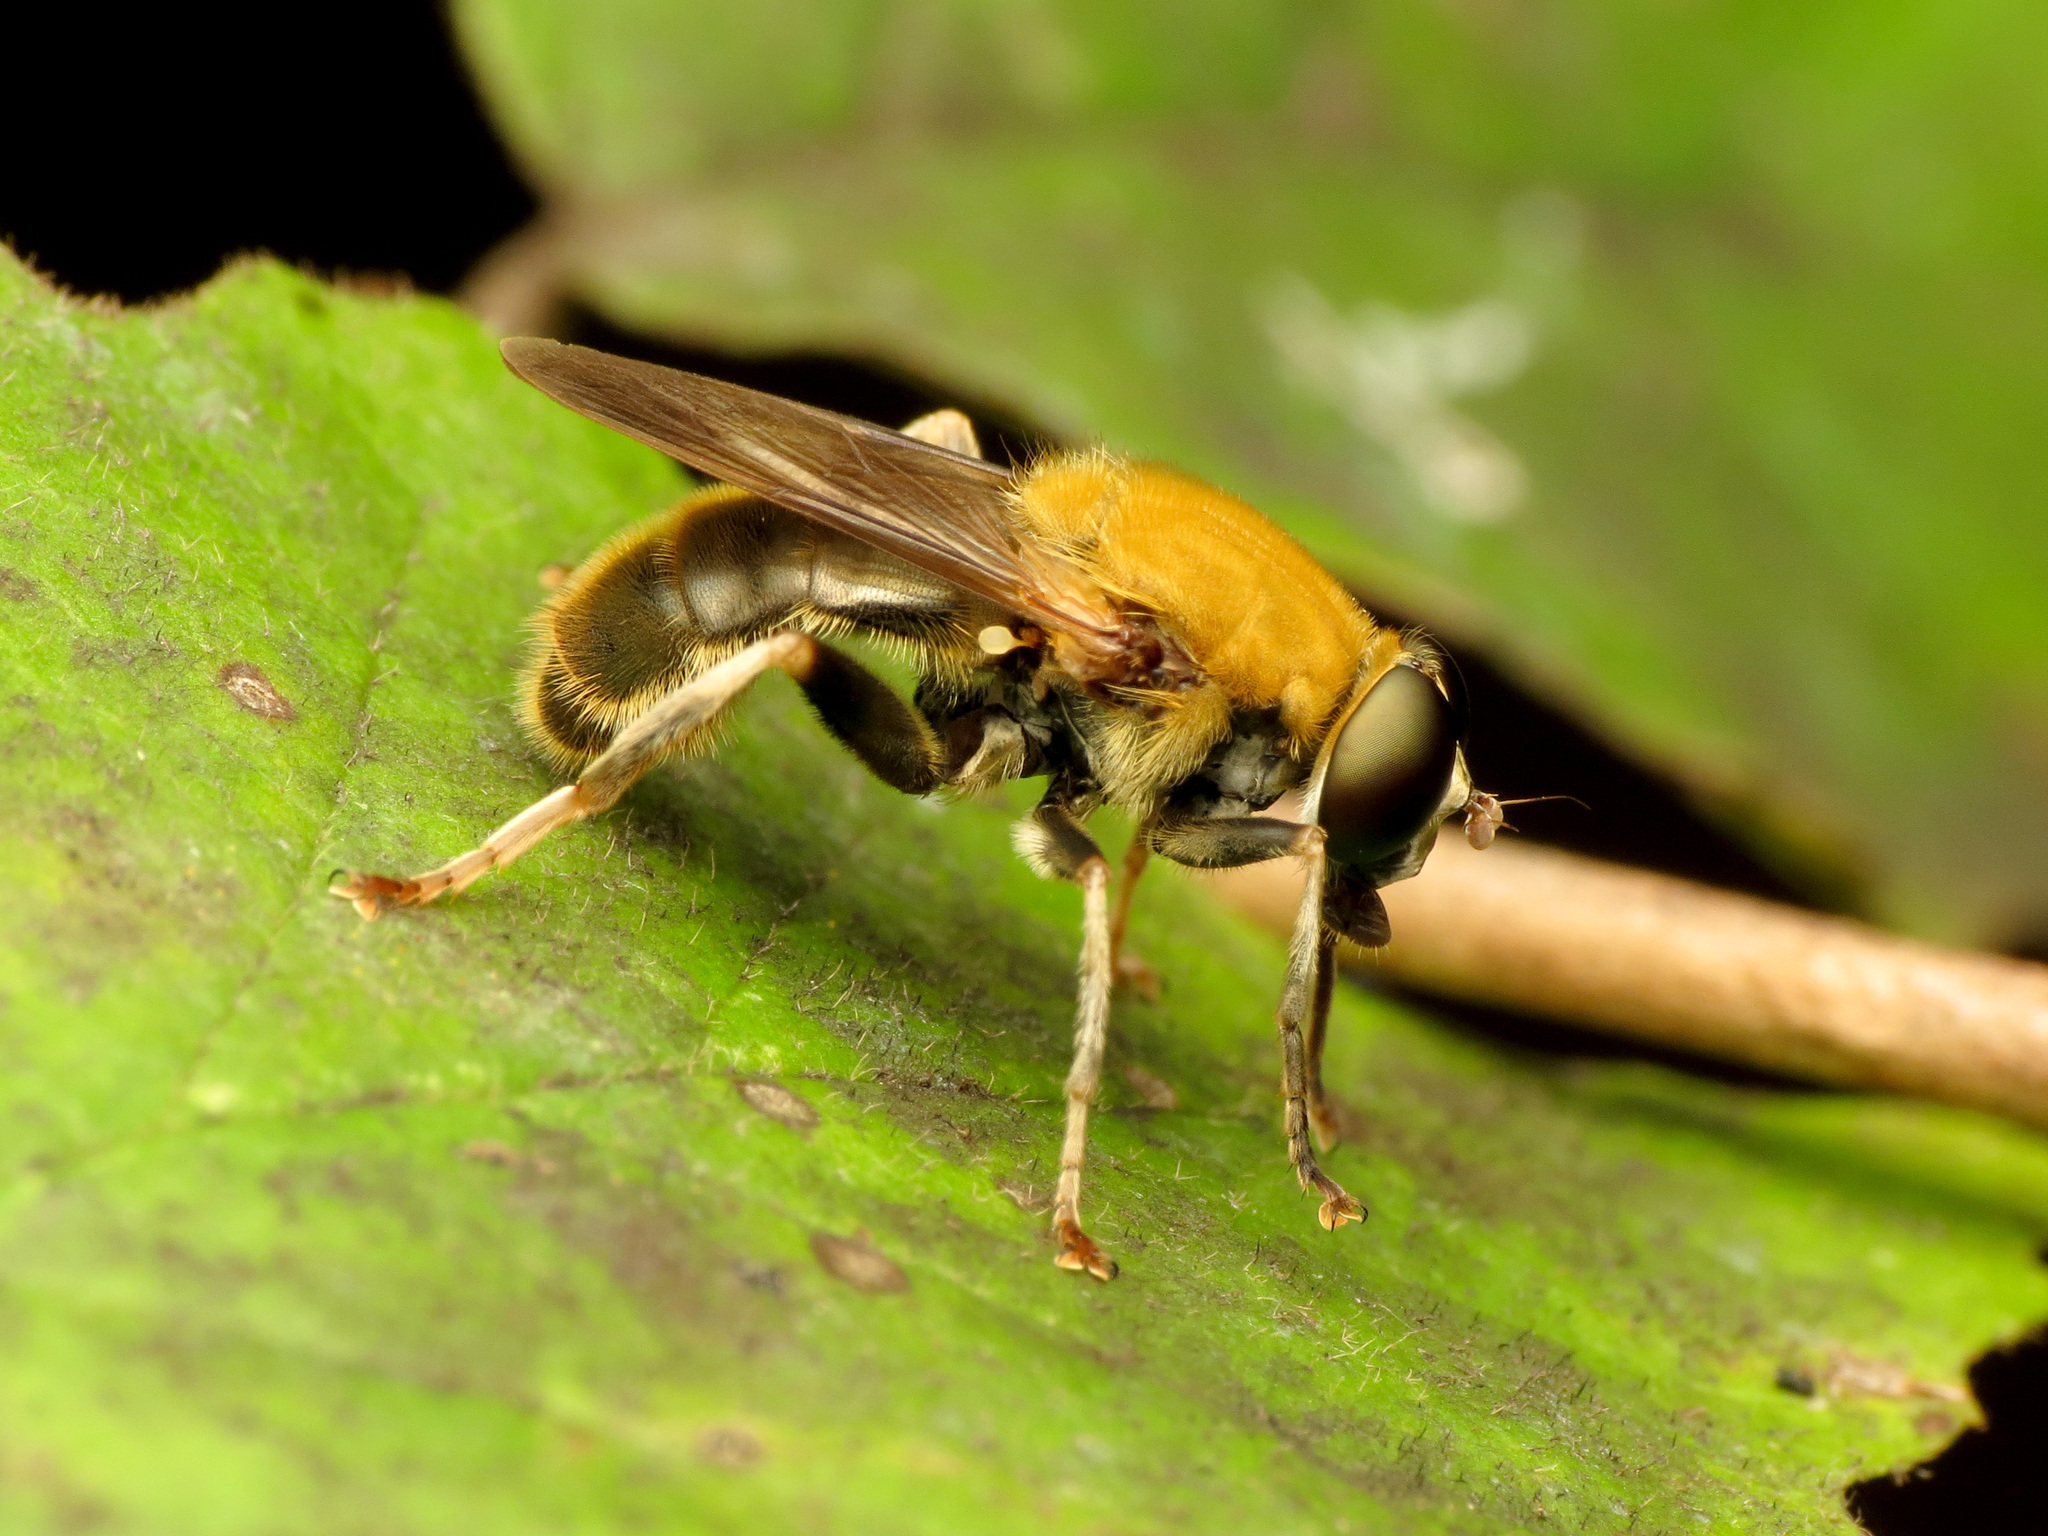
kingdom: Animalia
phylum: Arthropoda
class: Insecta
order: Diptera
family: Syrphidae
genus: Pterallastes
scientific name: Pterallastes thoracicus
